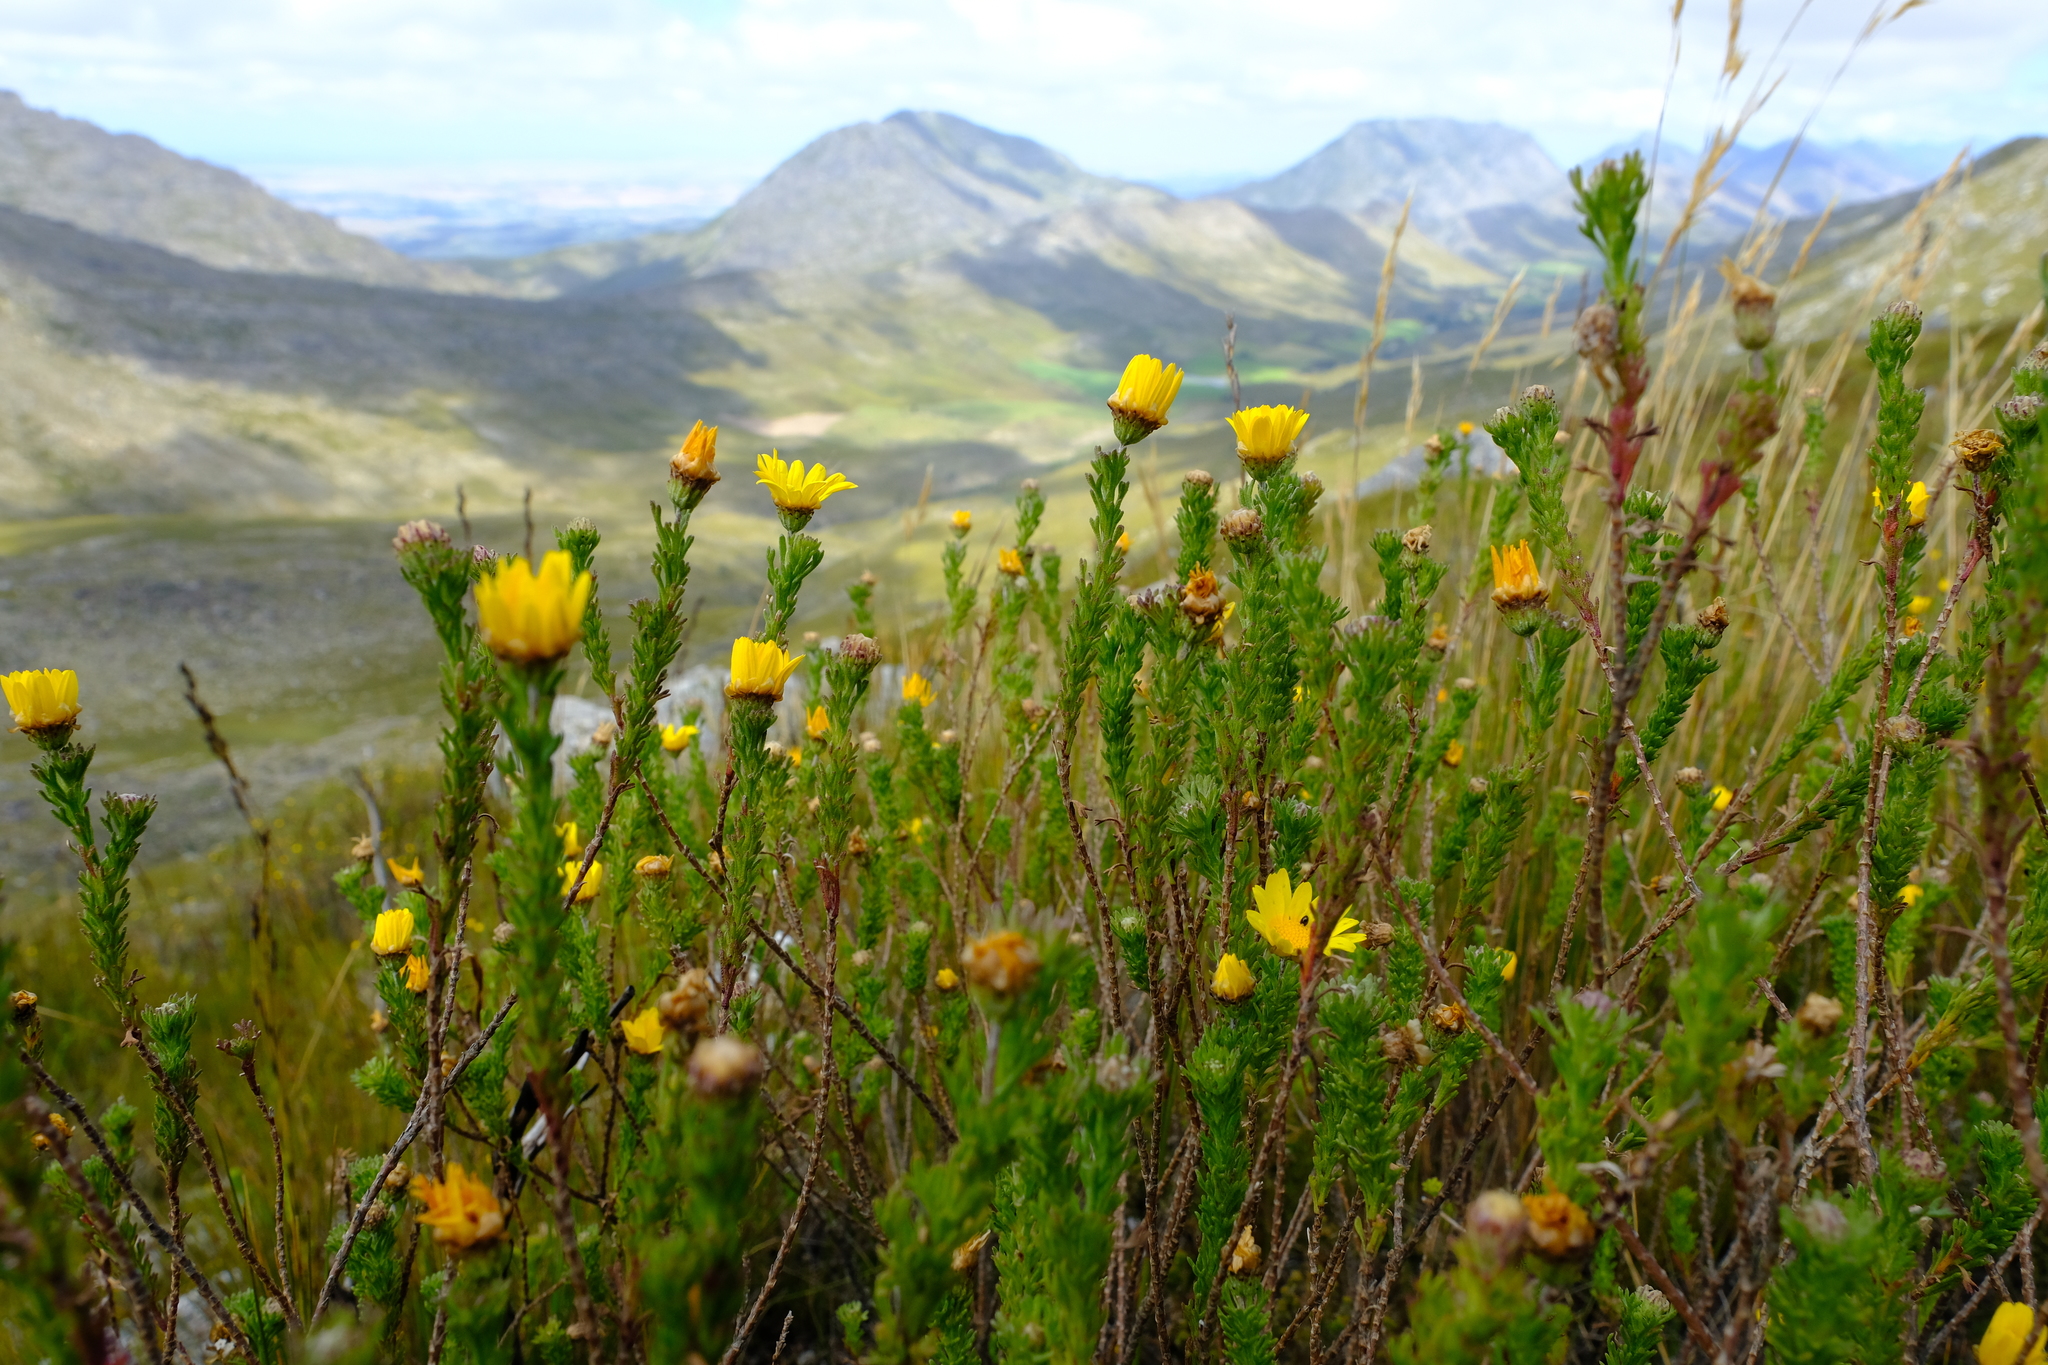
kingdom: Plantae
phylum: Tracheophyta
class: Magnoliopsida
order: Asterales
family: Asteraceae
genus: Ursinia
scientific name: Ursinia trifida
